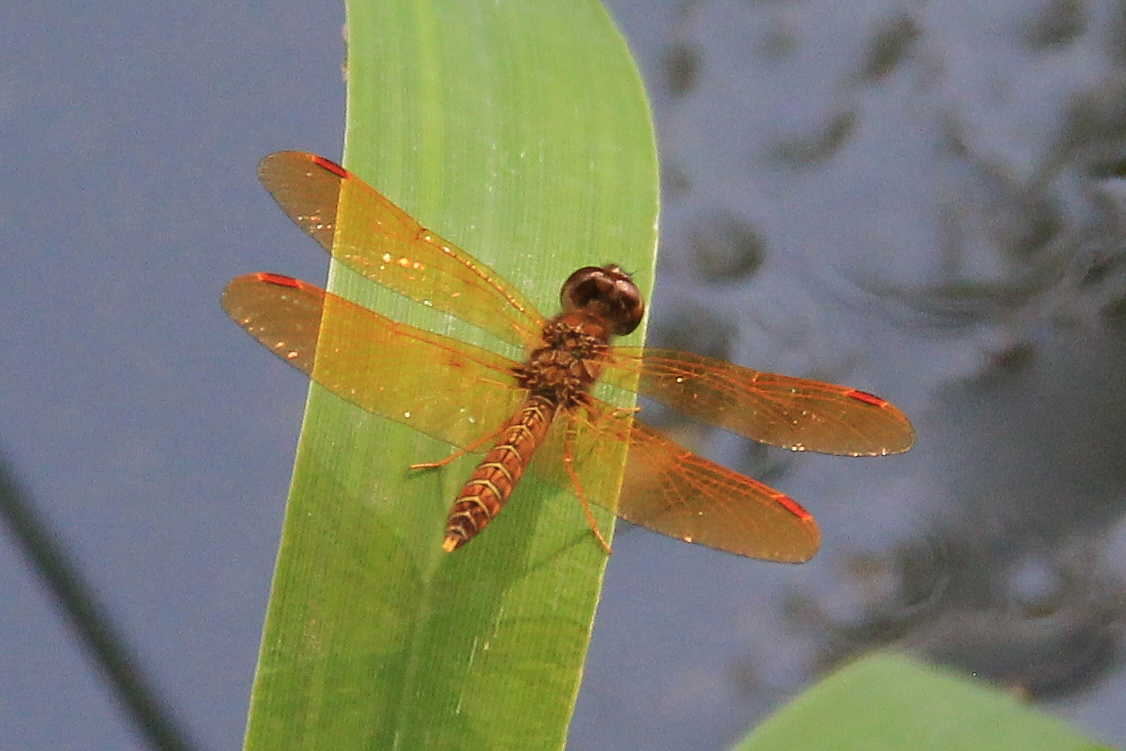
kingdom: Animalia
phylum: Arthropoda
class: Insecta
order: Odonata
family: Libellulidae
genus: Perithemis
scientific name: Perithemis tenera
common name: Eastern amberwing
